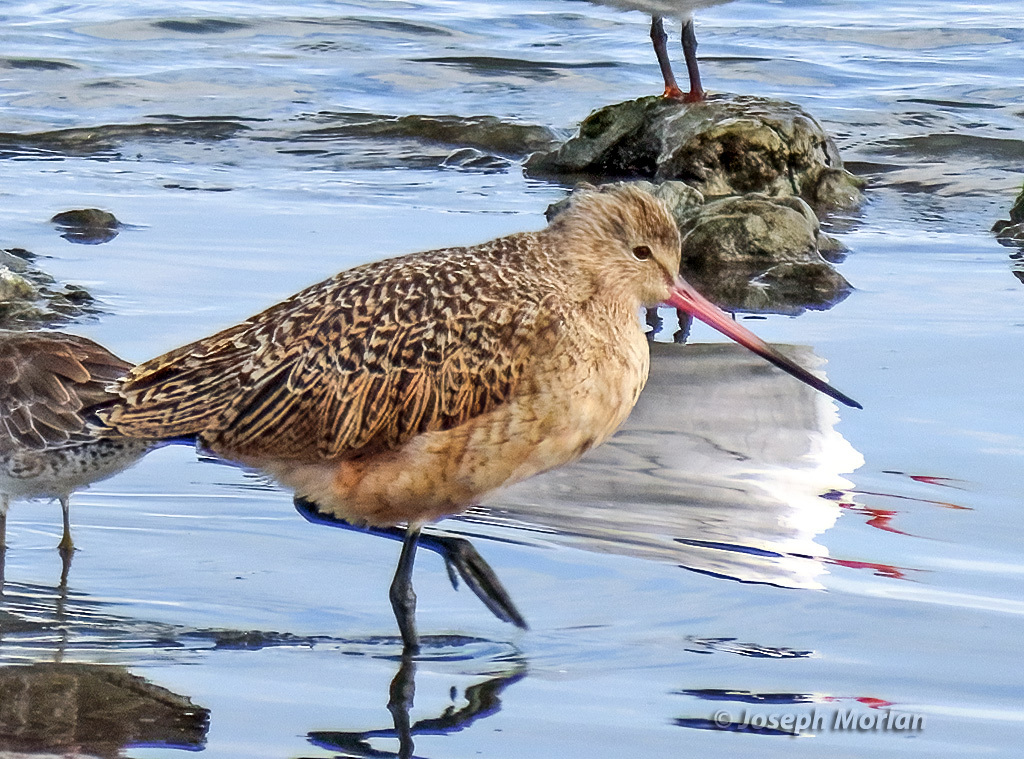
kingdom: Animalia
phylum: Chordata
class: Aves
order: Charadriiformes
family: Scolopacidae
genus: Limosa
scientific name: Limosa fedoa
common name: Marbled godwit
